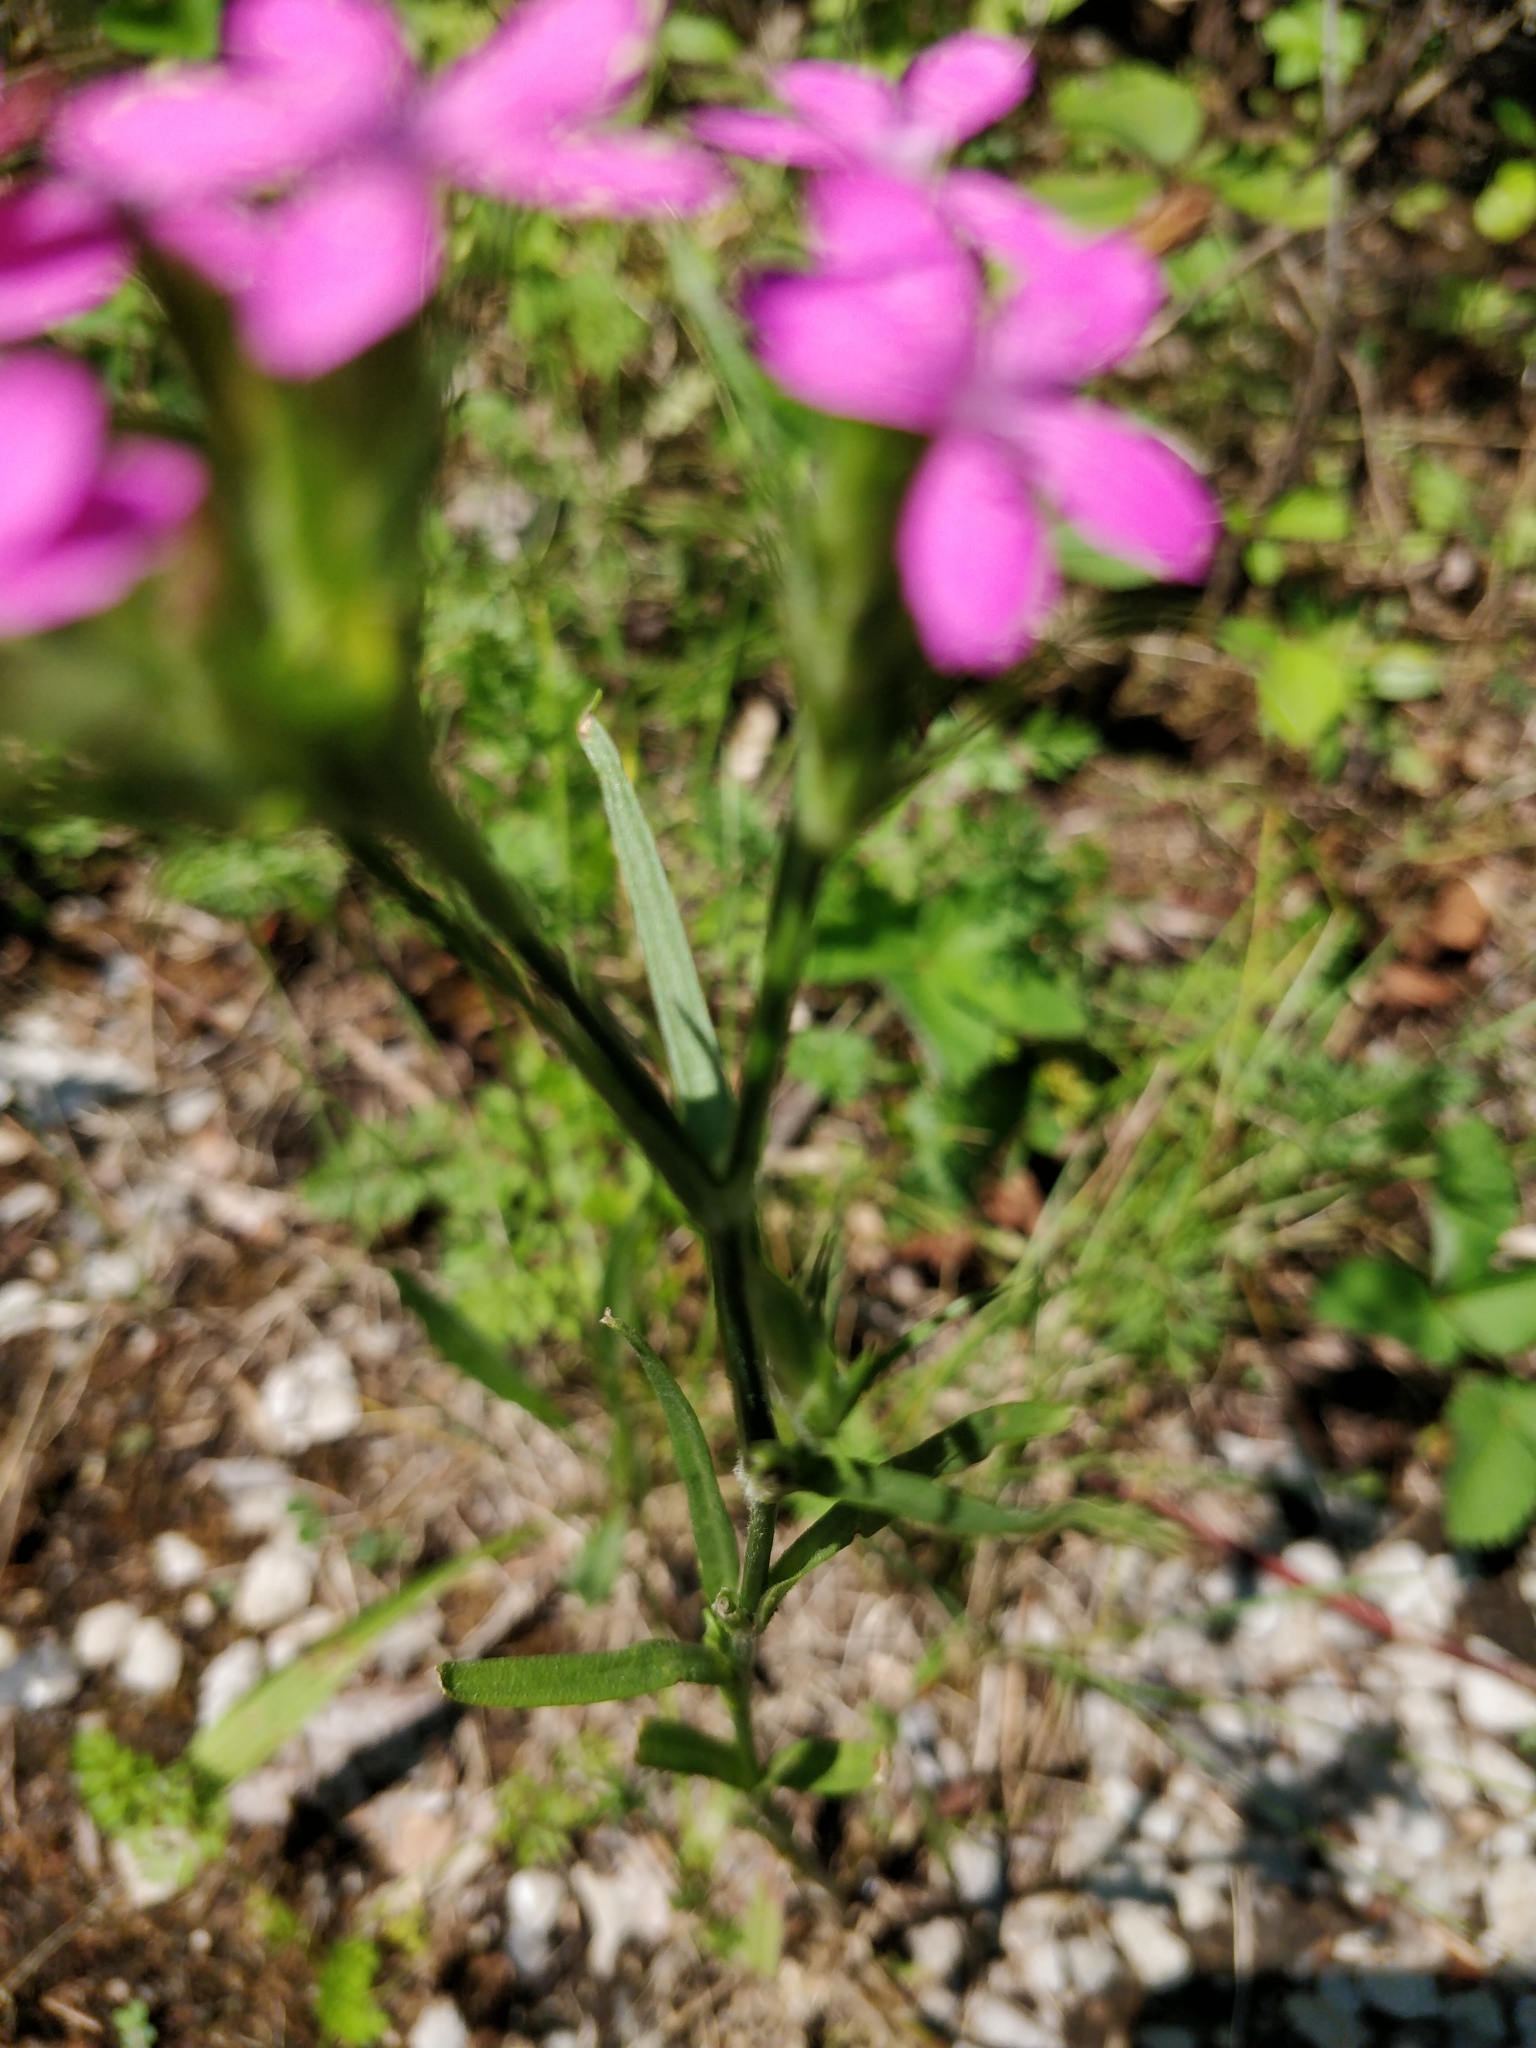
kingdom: Plantae
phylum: Tracheophyta
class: Magnoliopsida
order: Caryophyllales
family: Caryophyllaceae
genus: Dianthus
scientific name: Dianthus armeria
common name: Deptford pink
